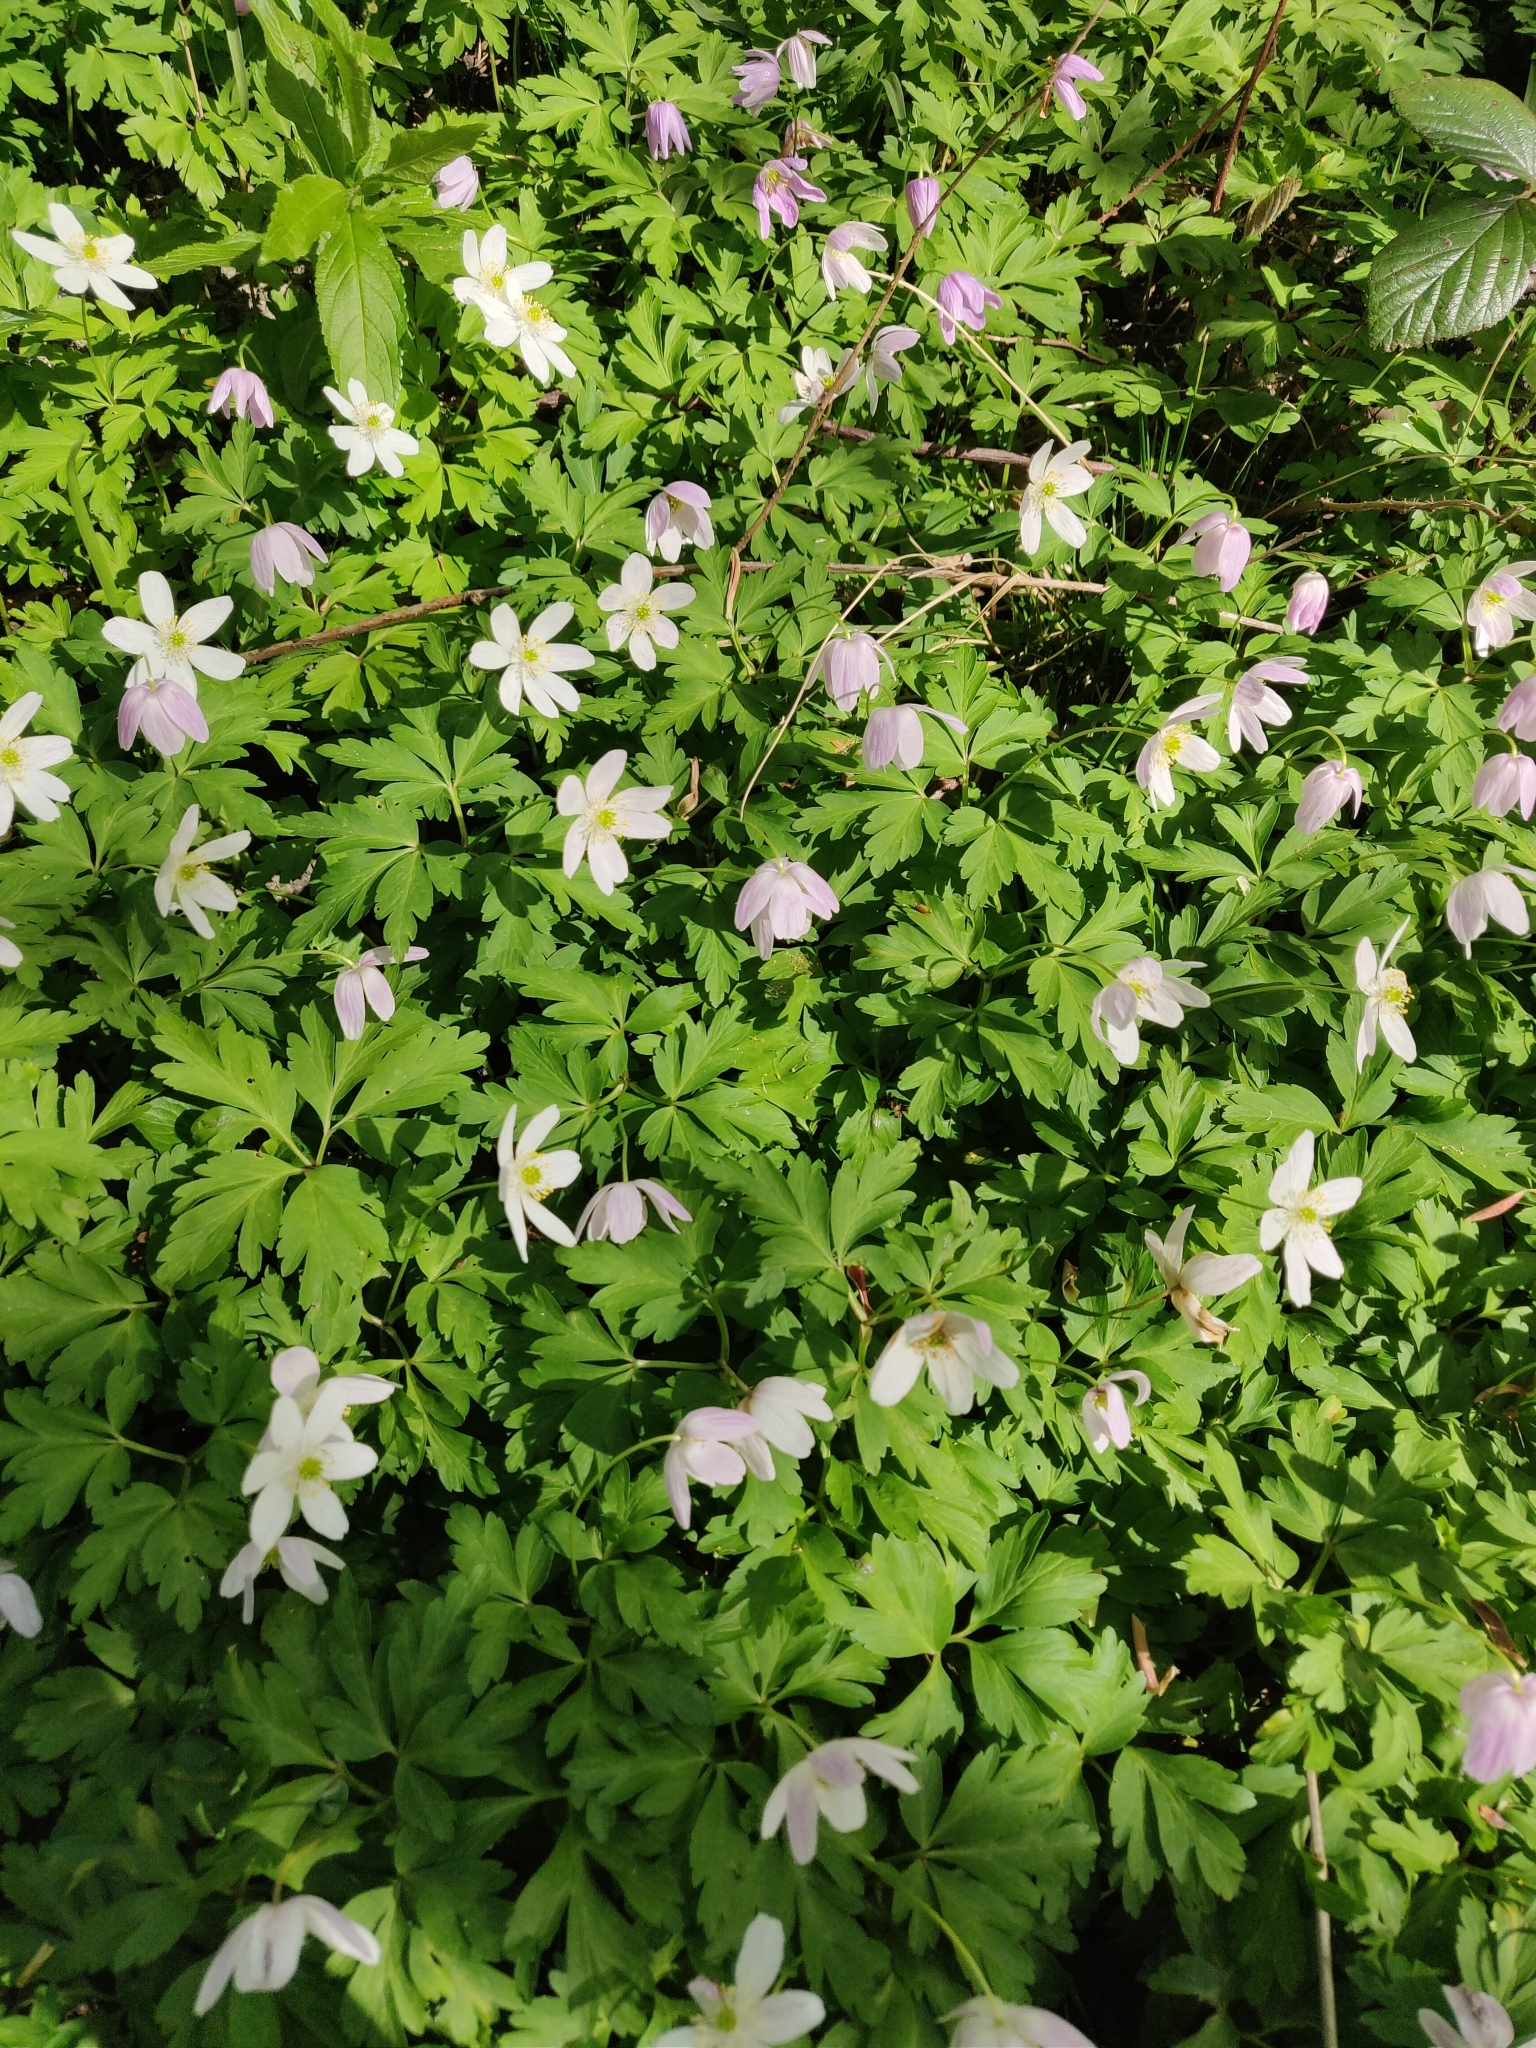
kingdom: Plantae
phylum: Tracheophyta
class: Magnoliopsida
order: Ranunculales
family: Ranunculaceae
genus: Anemone
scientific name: Anemone nemorosa
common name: Wood anemone
